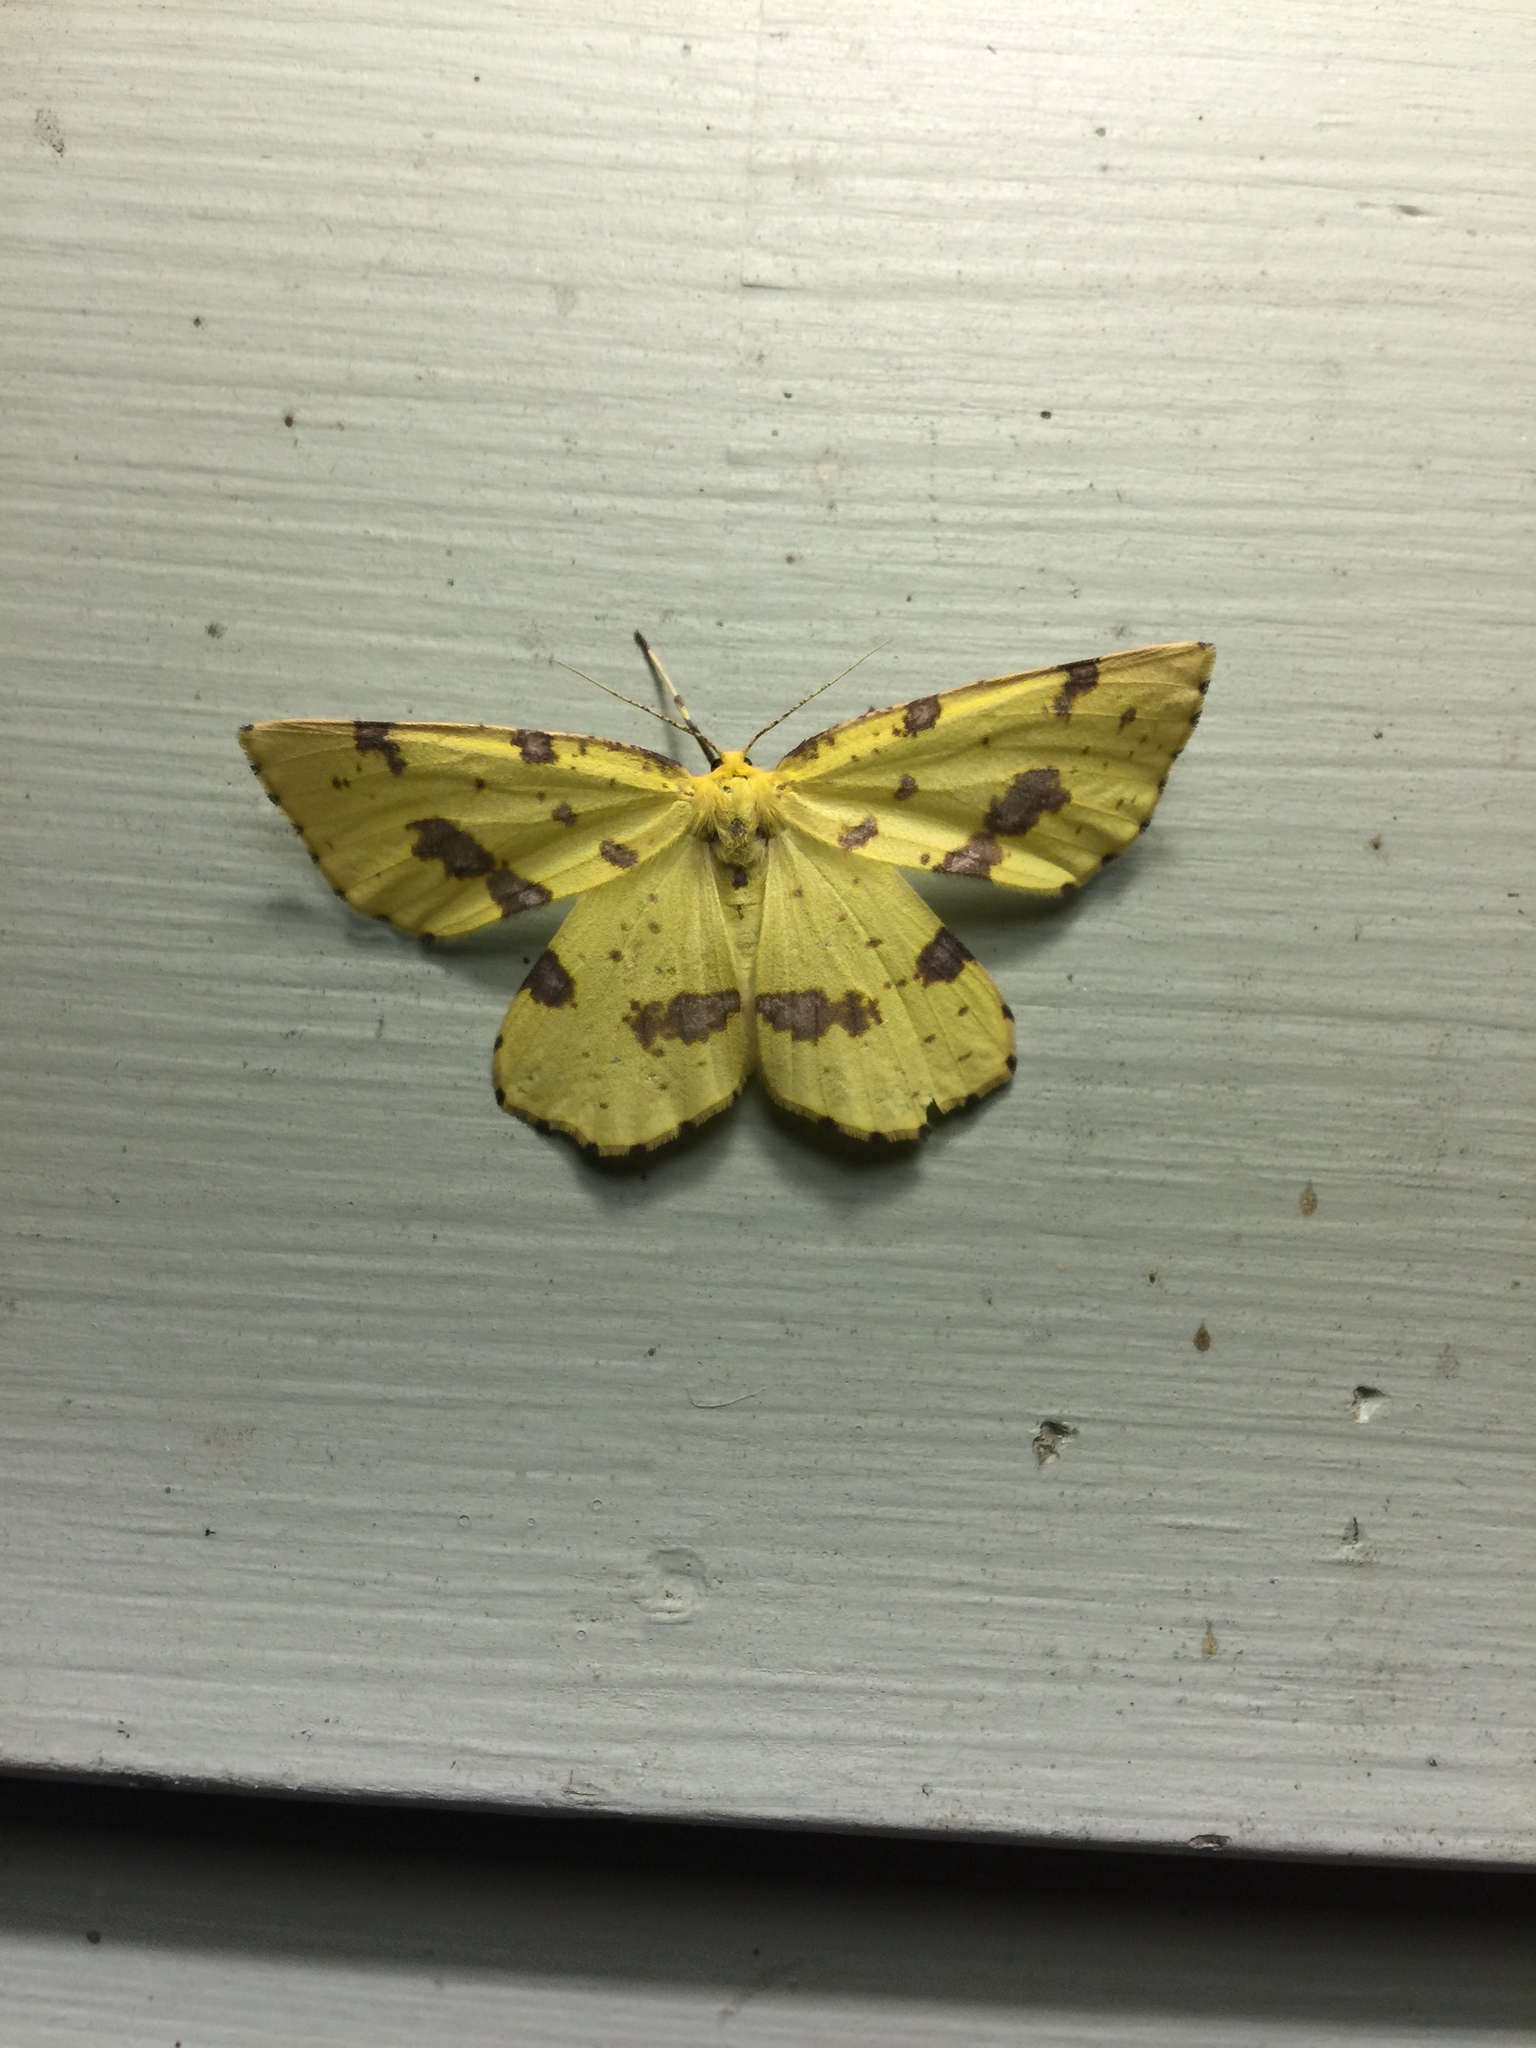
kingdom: Animalia
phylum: Arthropoda
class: Insecta
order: Lepidoptera
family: Geometridae
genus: Xanthotype
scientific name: Xanthotype
